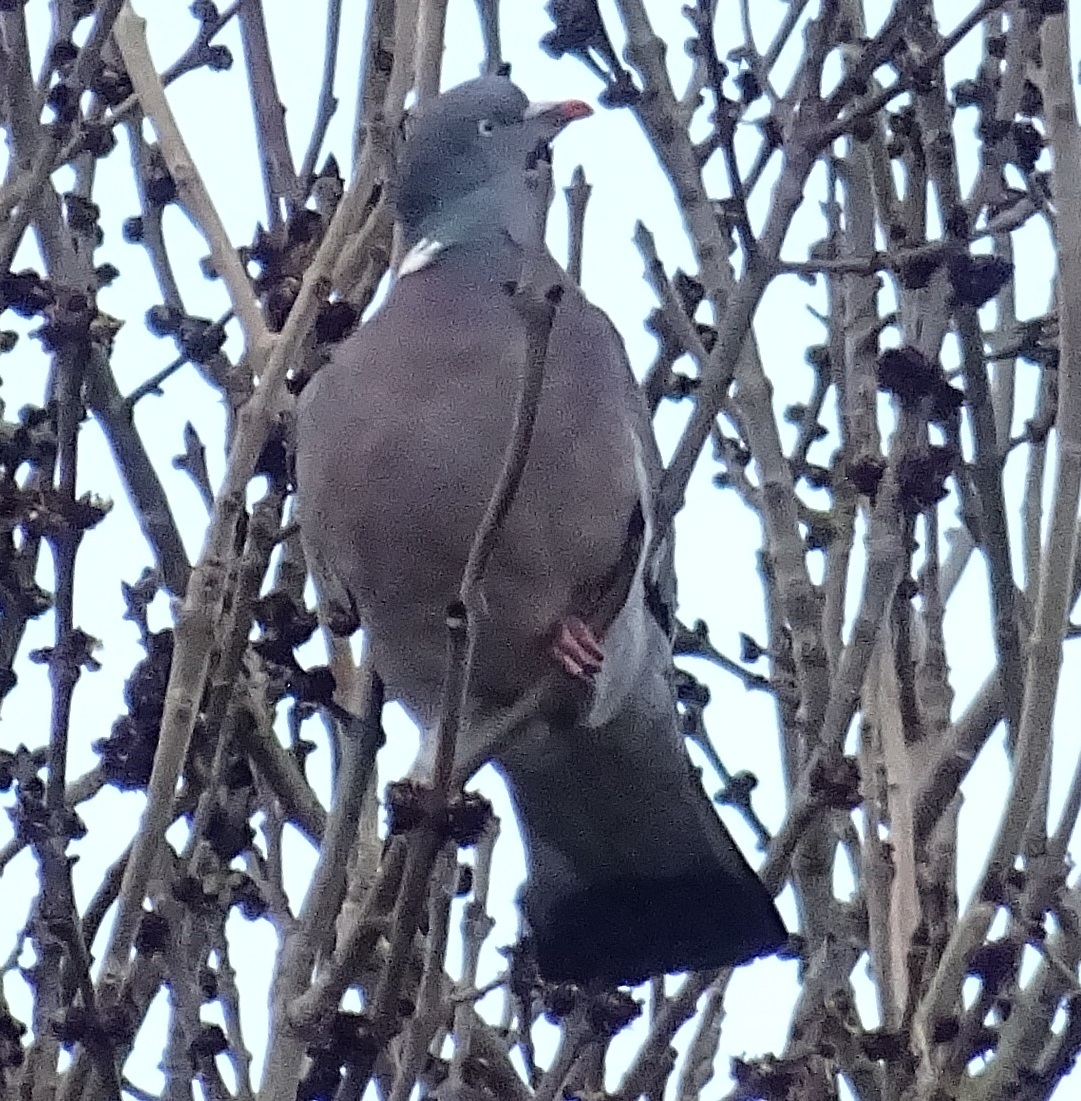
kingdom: Animalia
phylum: Chordata
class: Aves
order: Columbiformes
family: Columbidae
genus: Columba
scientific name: Columba palumbus
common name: Common wood pigeon
